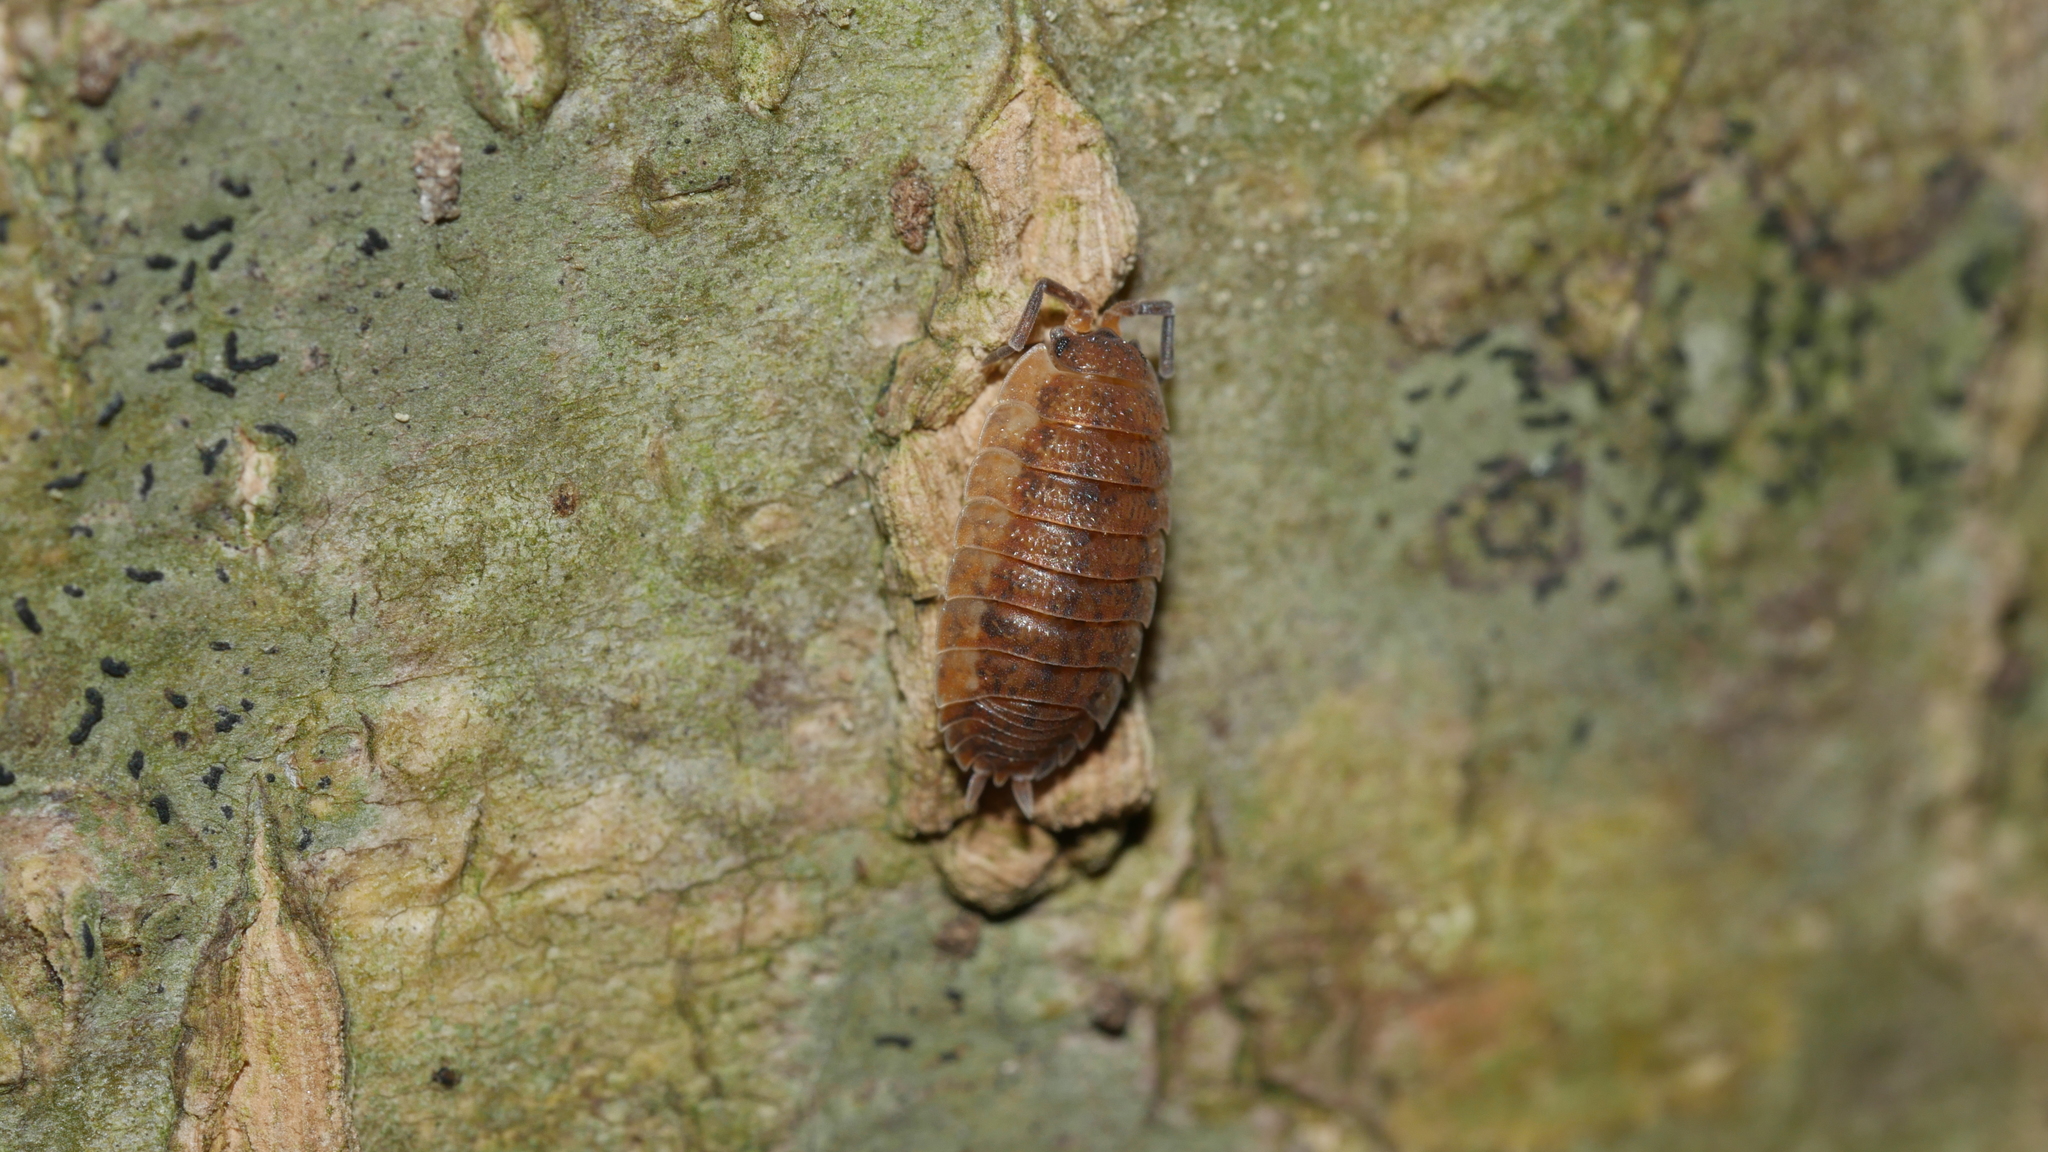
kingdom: Animalia
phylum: Arthropoda
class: Malacostraca
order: Isopoda
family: Porcellionidae
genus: Porcellio
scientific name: Porcellio scaber
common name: Common rough woodlouse
